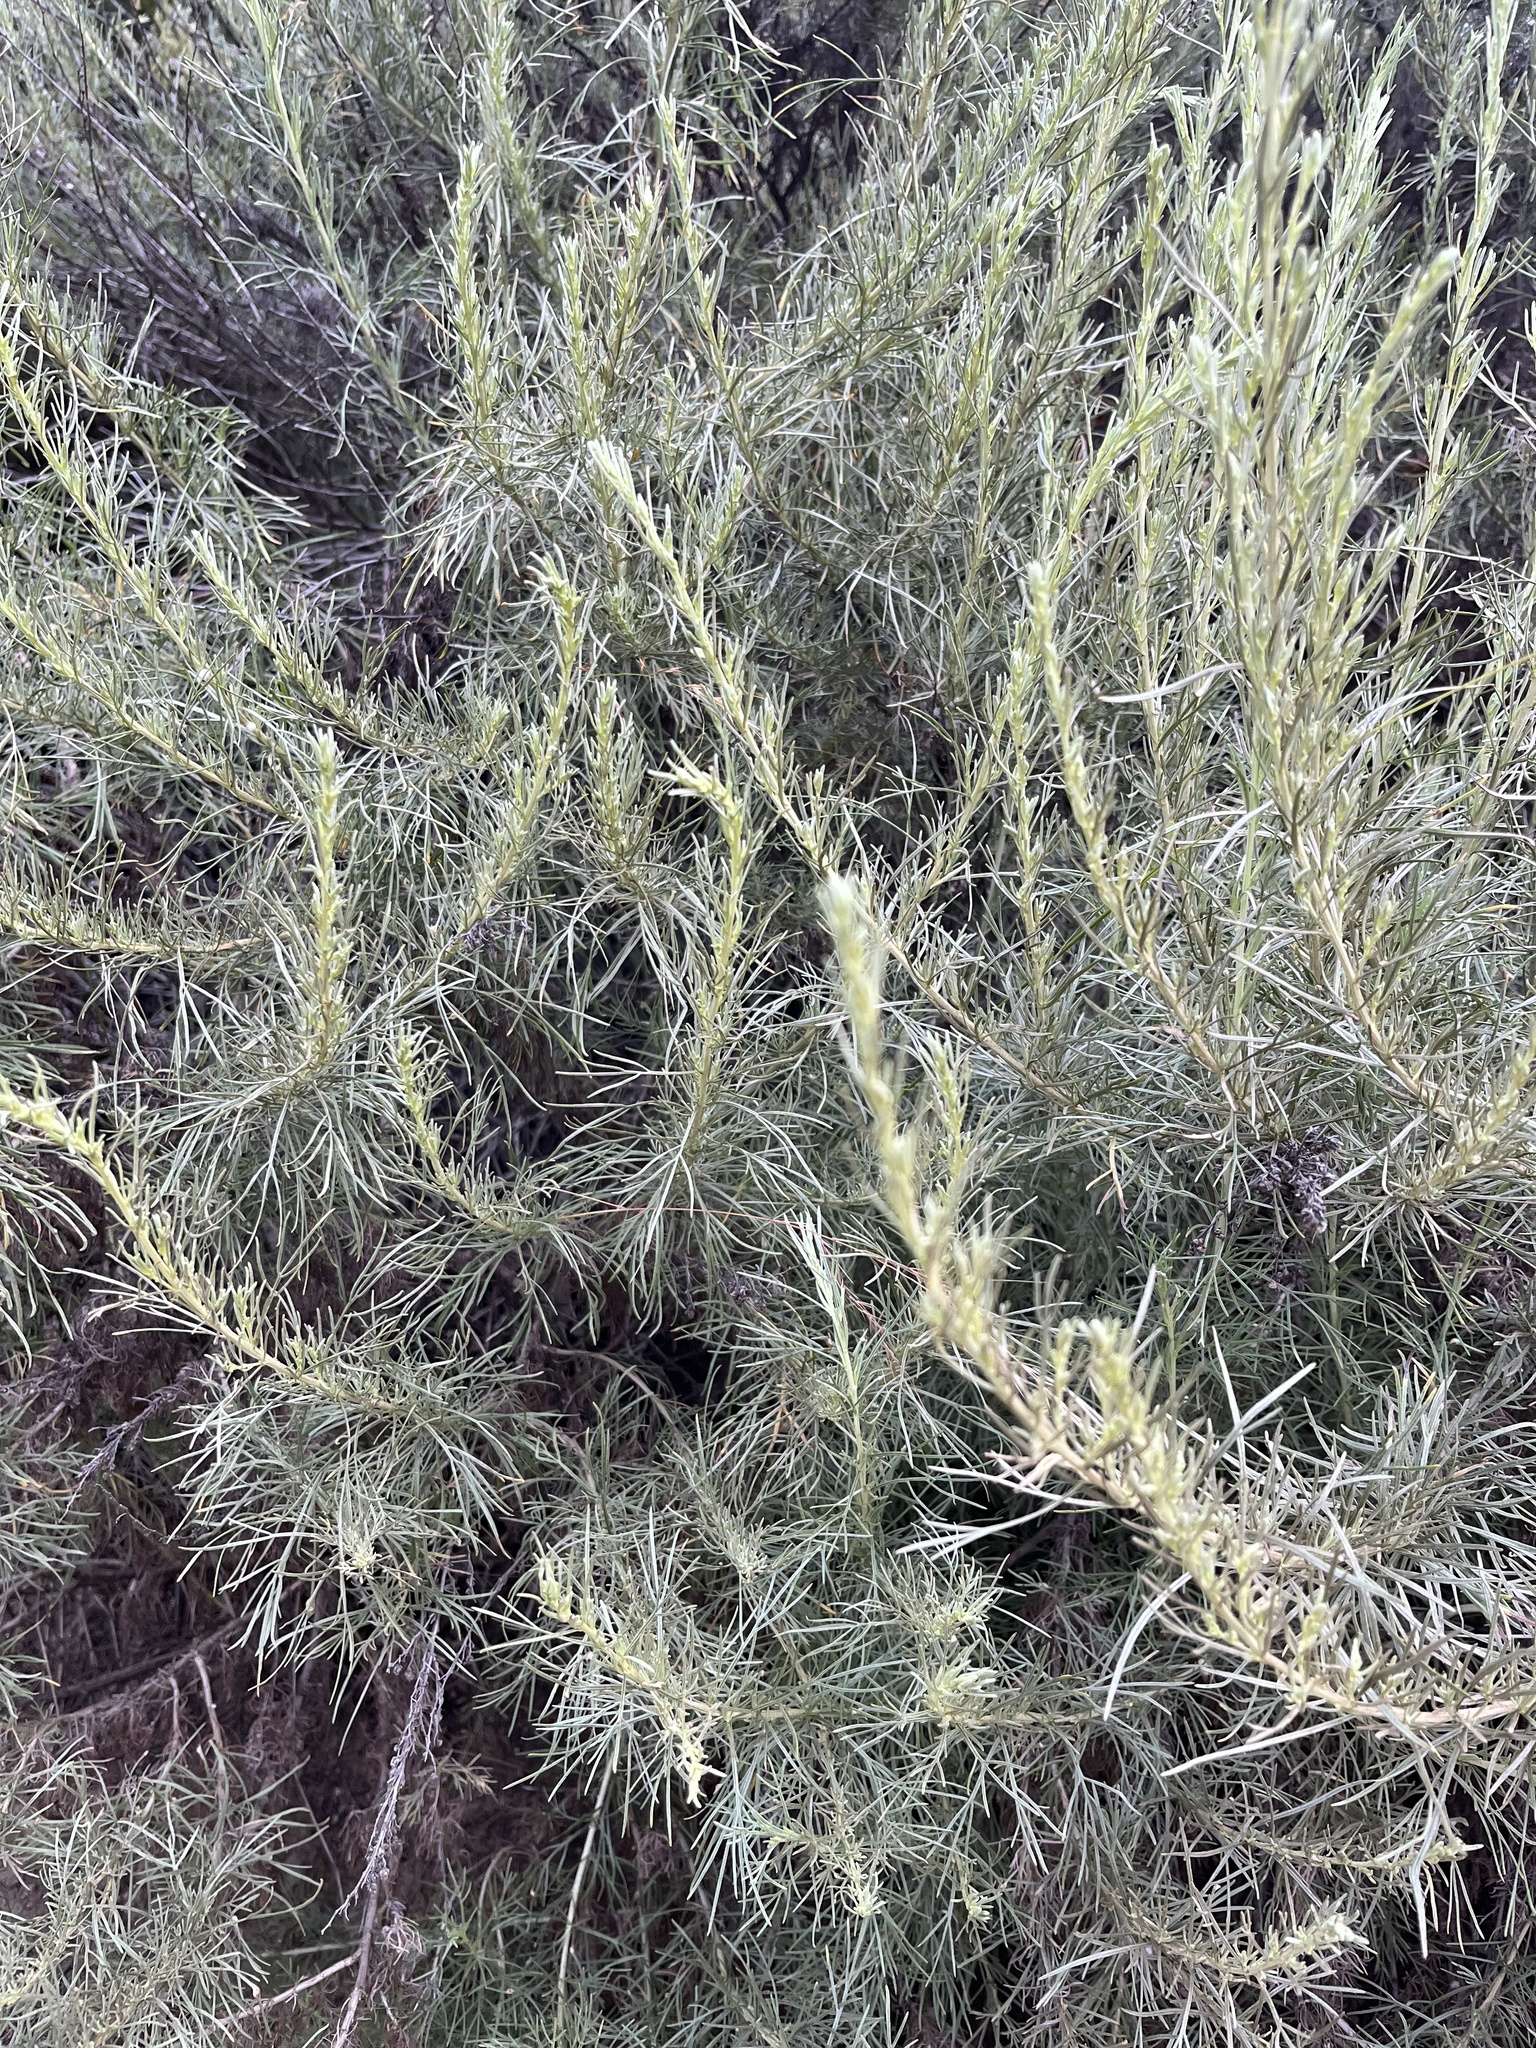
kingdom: Plantae
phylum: Tracheophyta
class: Magnoliopsida
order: Asterales
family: Asteraceae
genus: Artemisia
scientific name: Artemisia californica
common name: California sagebrush
